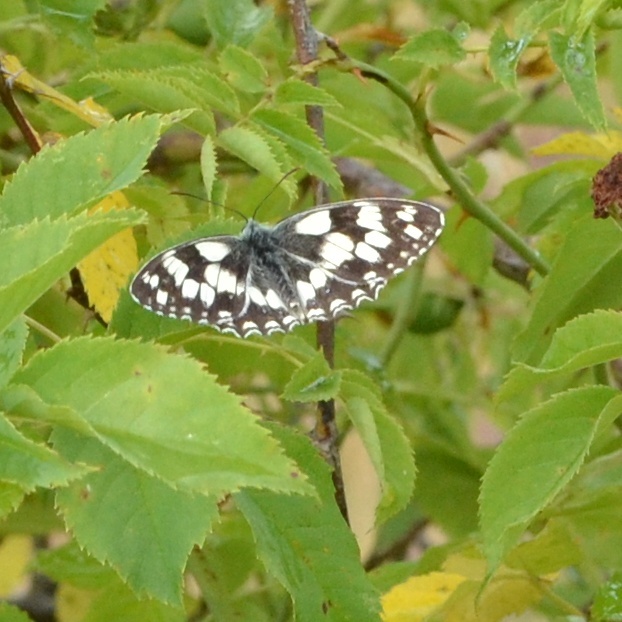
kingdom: Animalia
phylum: Arthropoda
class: Insecta
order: Lepidoptera
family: Nymphalidae
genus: Melanargia
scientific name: Melanargia galathea
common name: Marbled white
